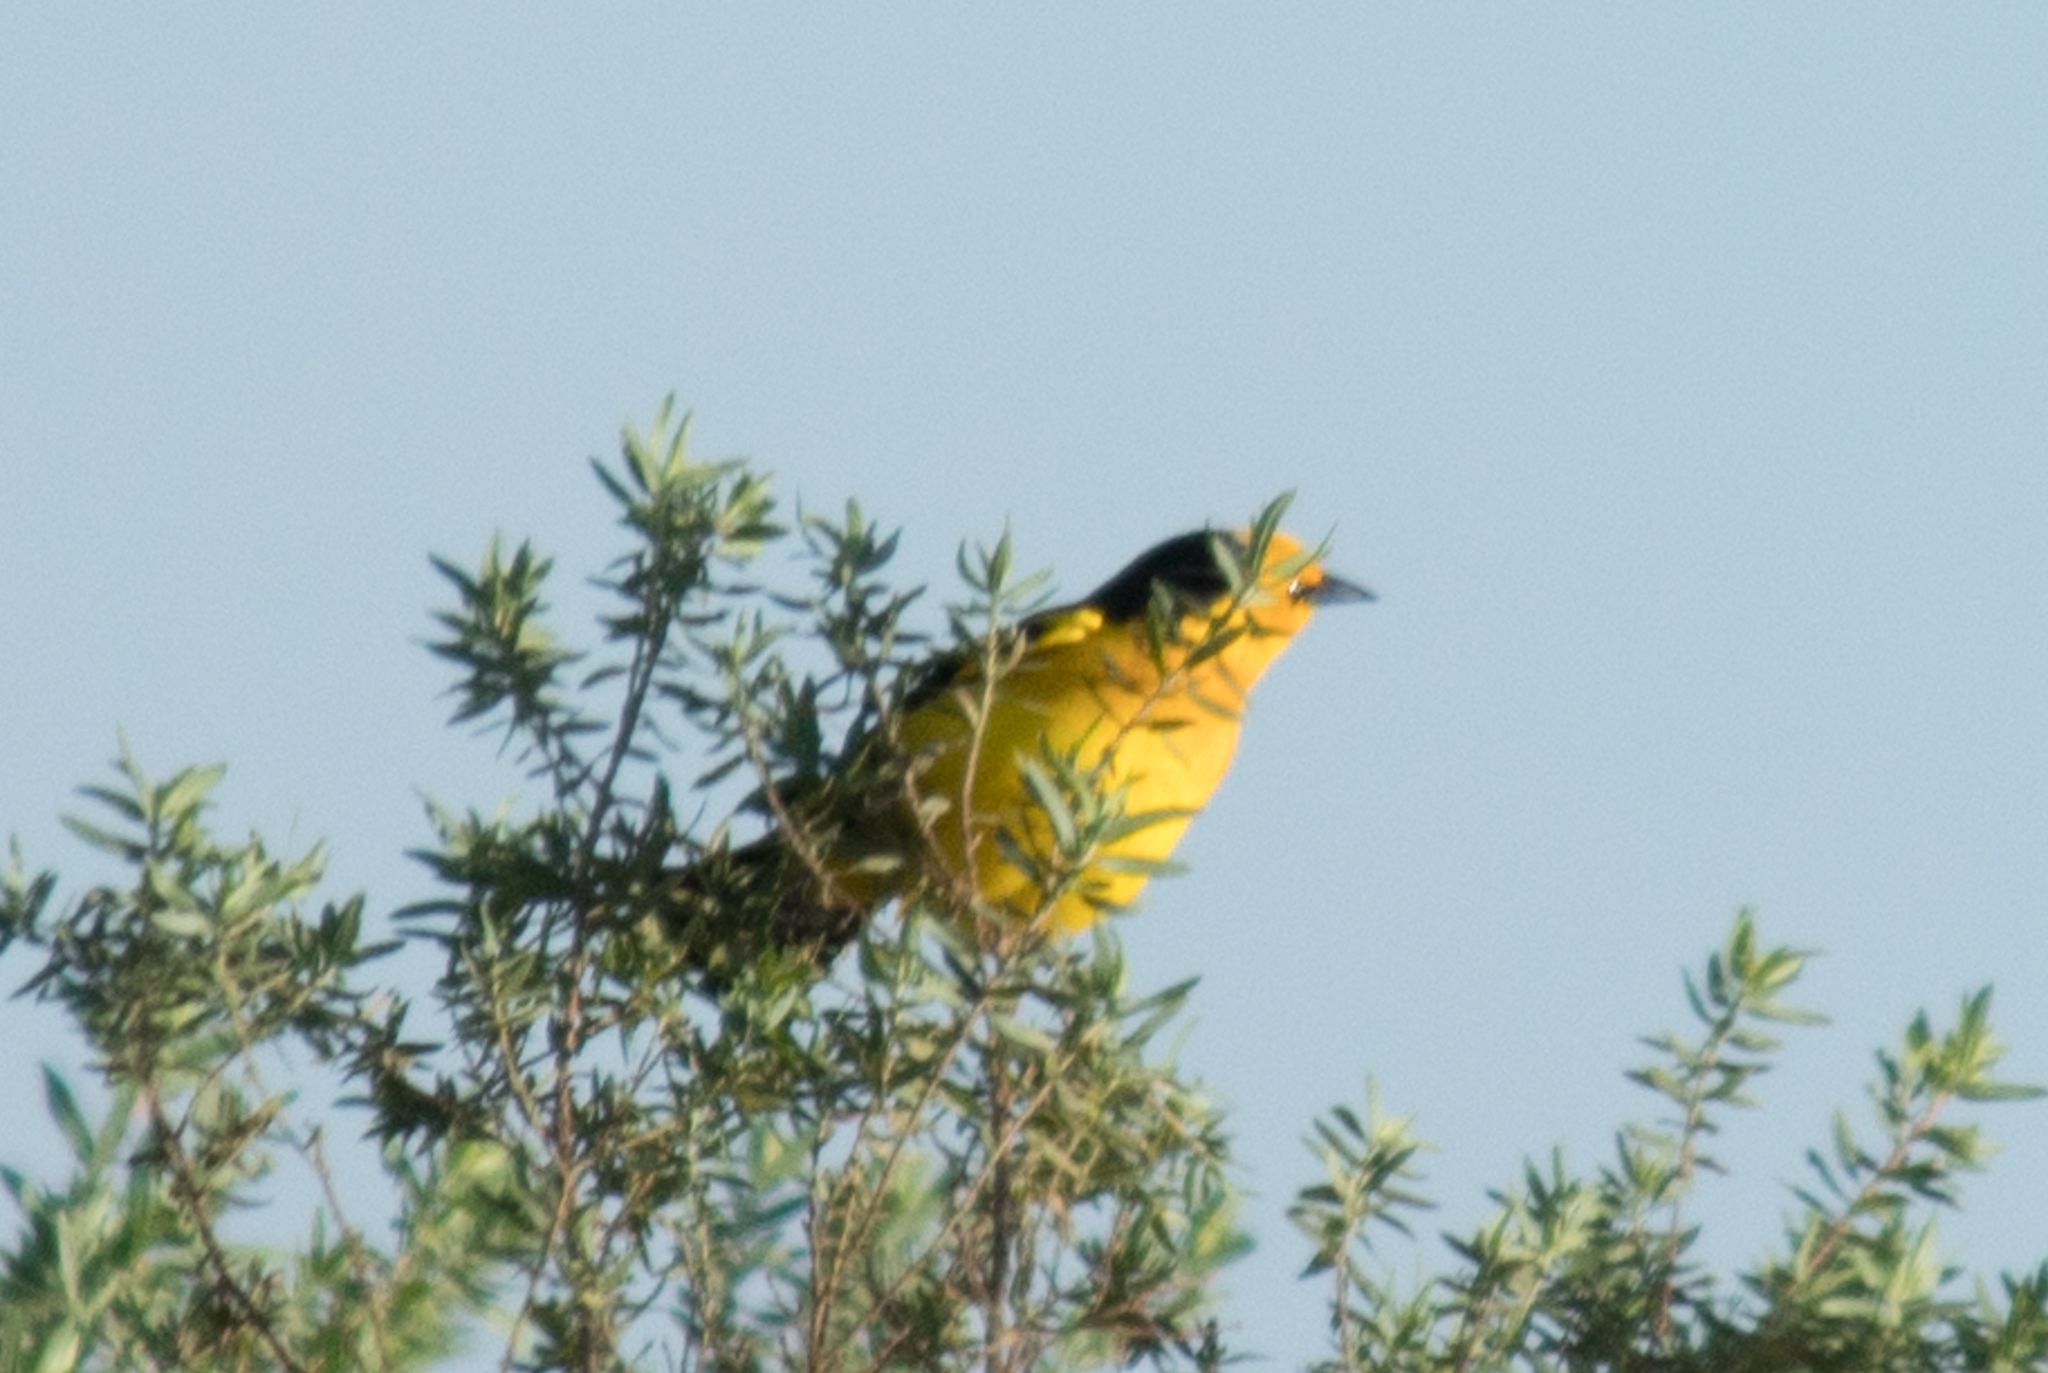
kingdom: Animalia
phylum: Chordata
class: Aves
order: Passeriformes
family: Icteridae
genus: Xanthopsar
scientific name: Xanthopsar flavus
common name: Saffron-cowled blackbird
